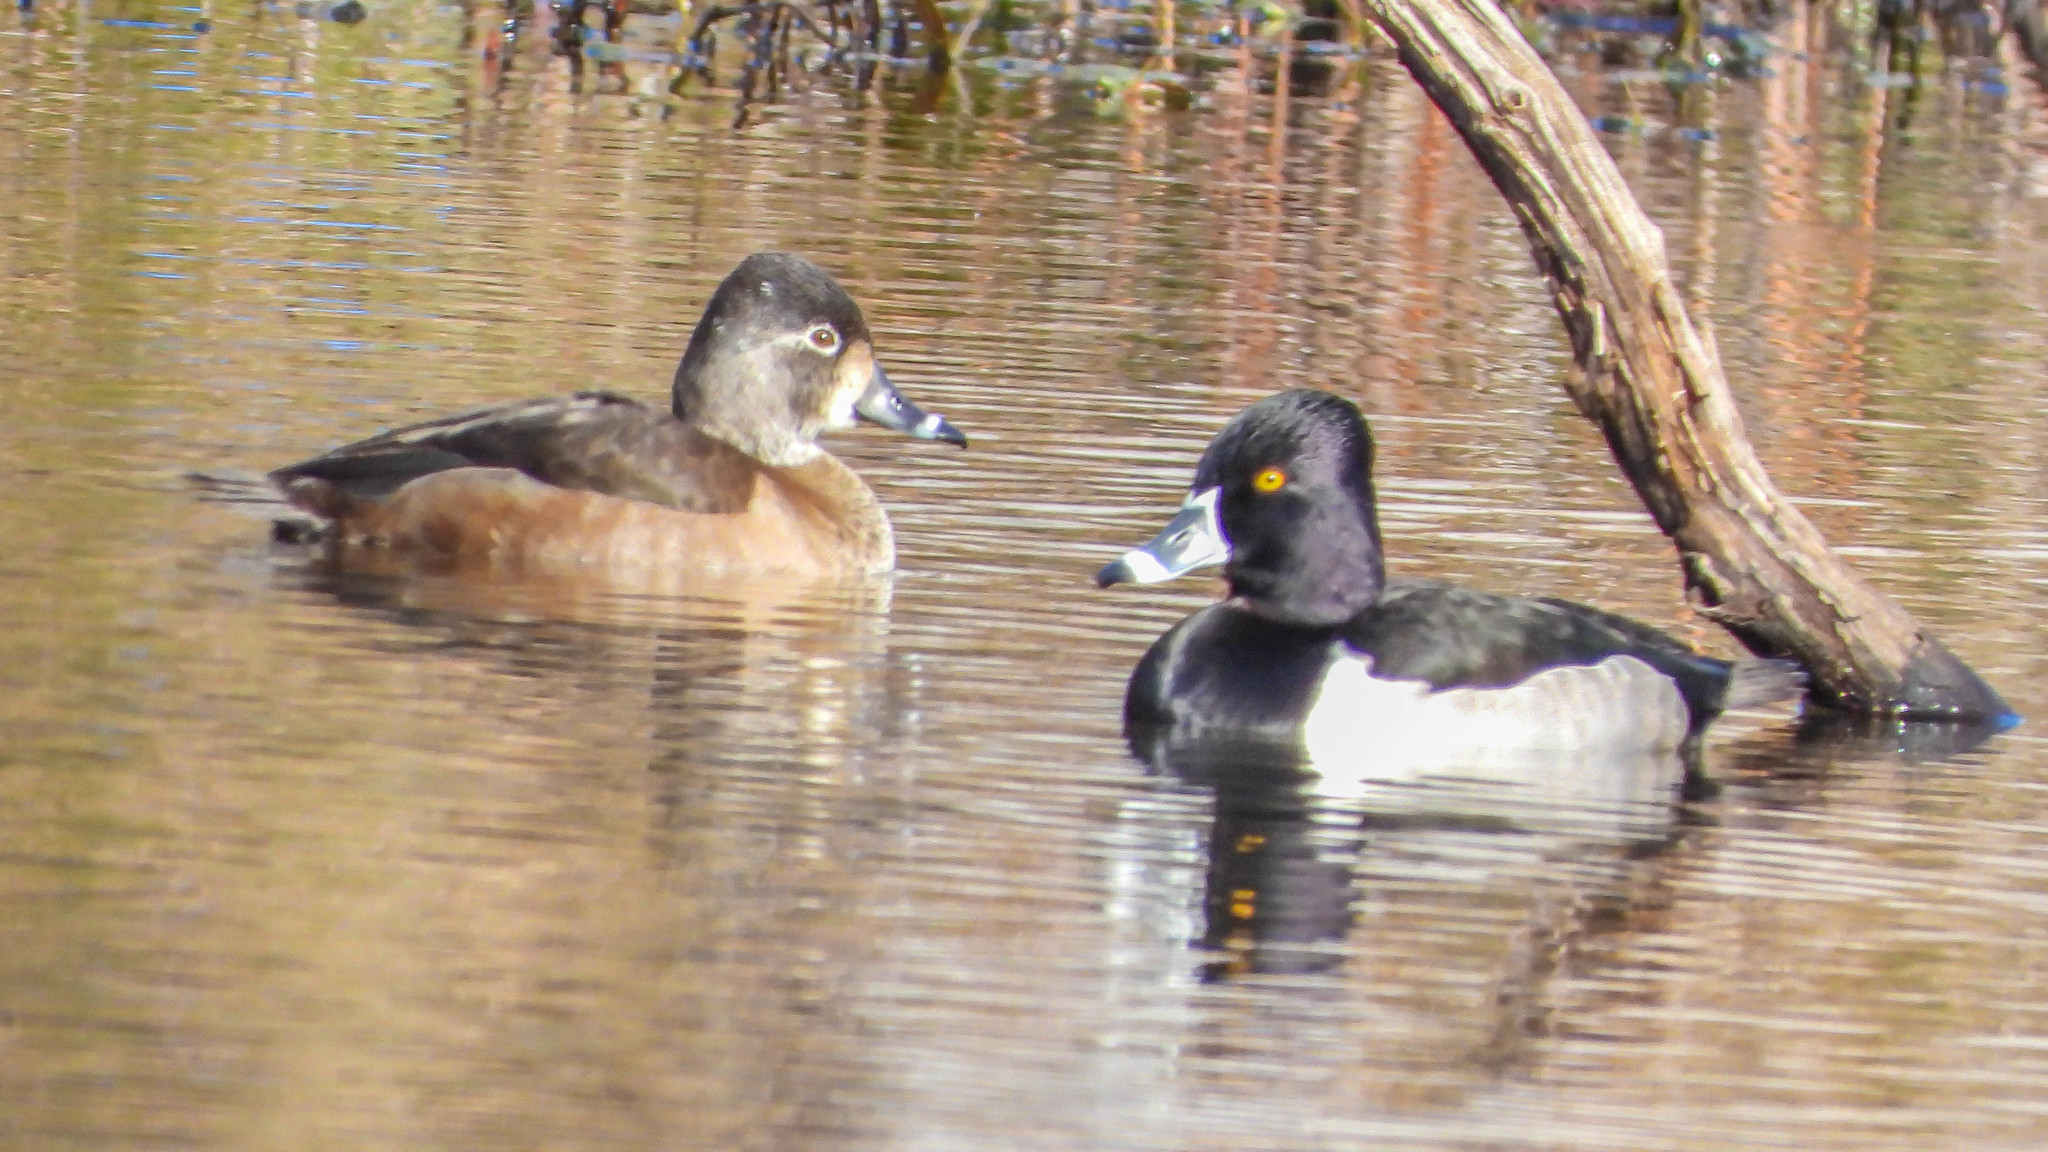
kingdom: Animalia
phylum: Chordata
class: Aves
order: Anseriformes
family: Anatidae
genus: Aythya
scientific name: Aythya collaris
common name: Ring-necked duck
